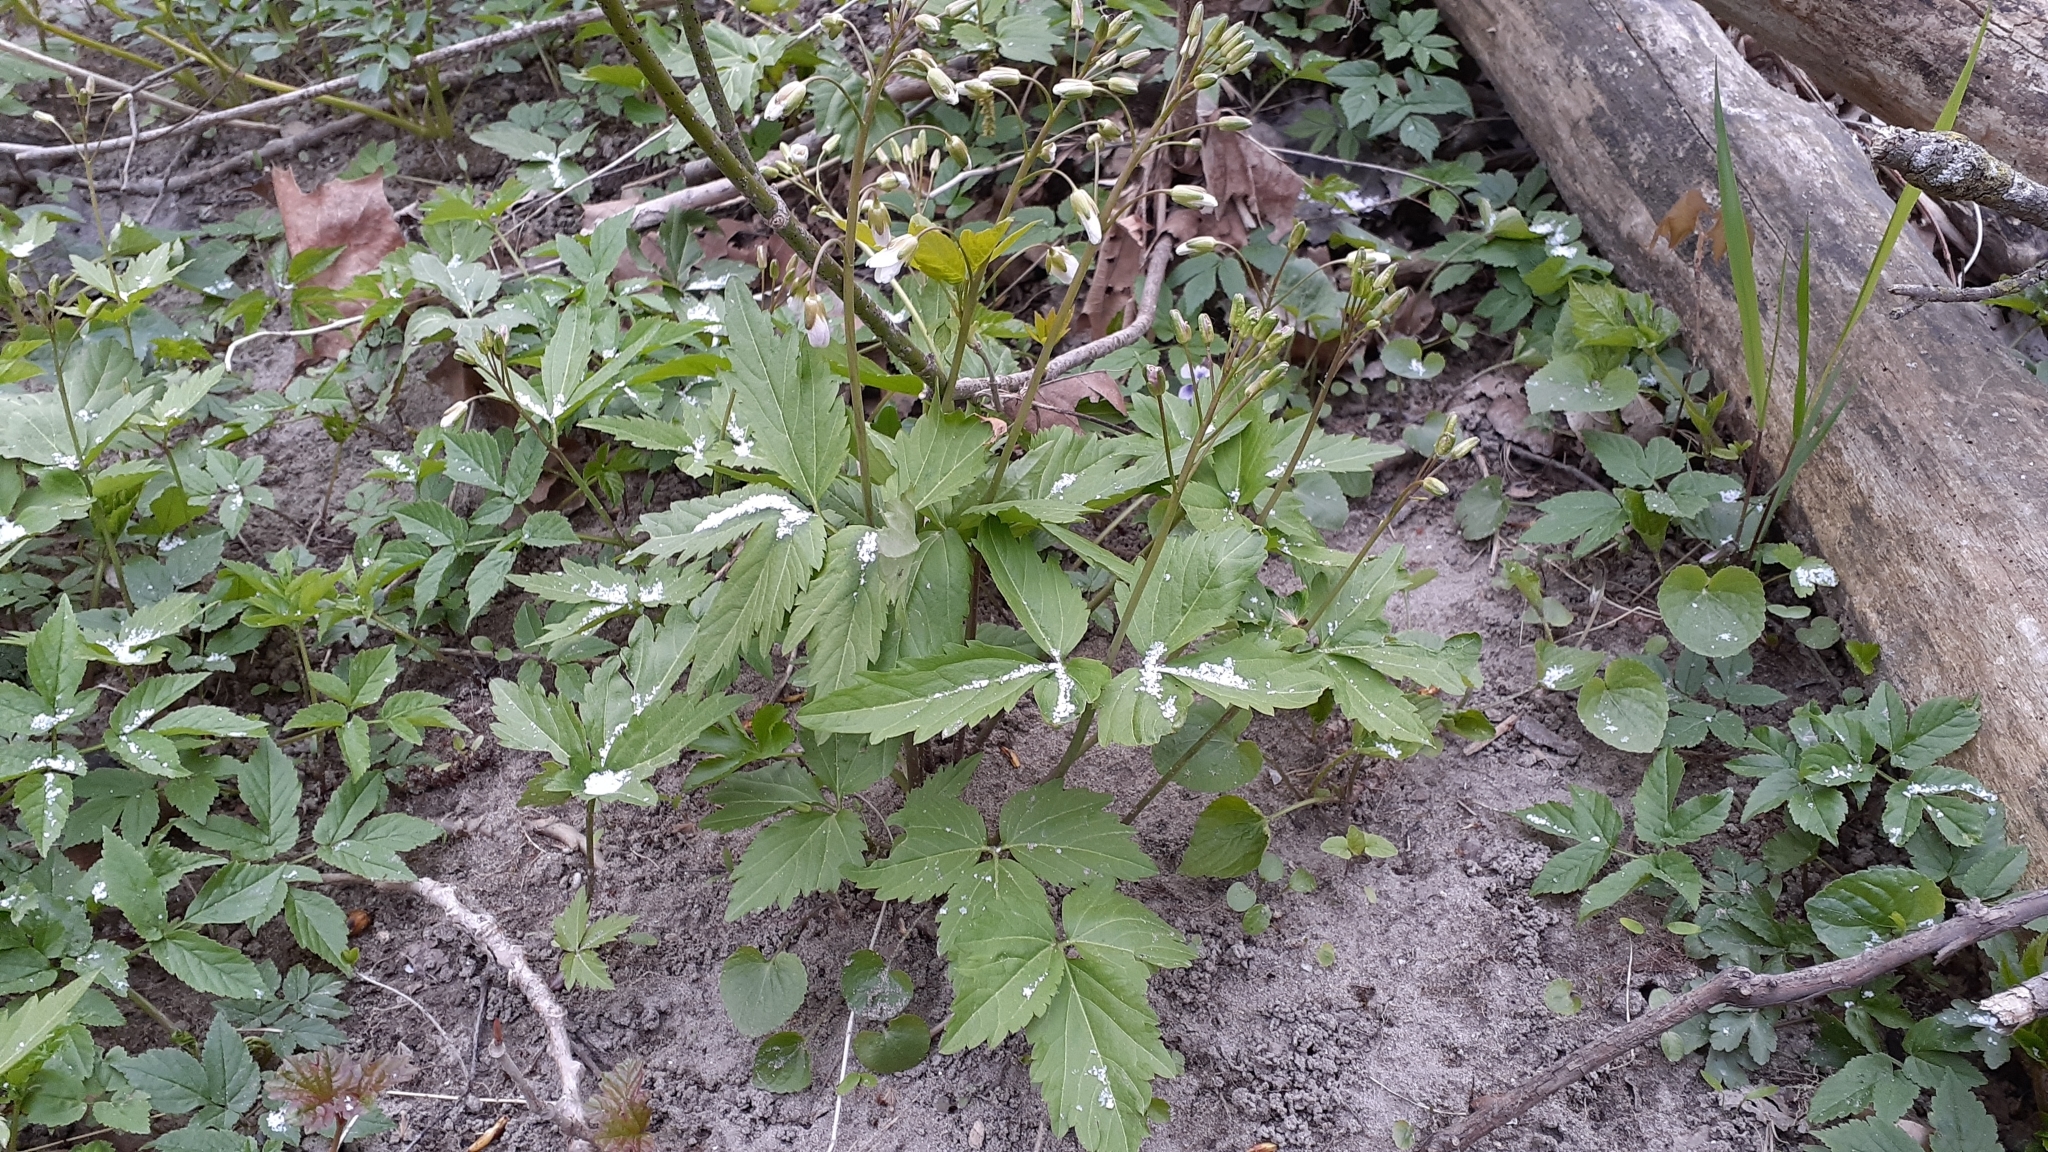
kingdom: Plantae
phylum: Tracheophyta
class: Magnoliopsida
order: Brassicales
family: Brassicaceae
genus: Cardamine
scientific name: Cardamine diphylla
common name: Broad-leaved toothwort
